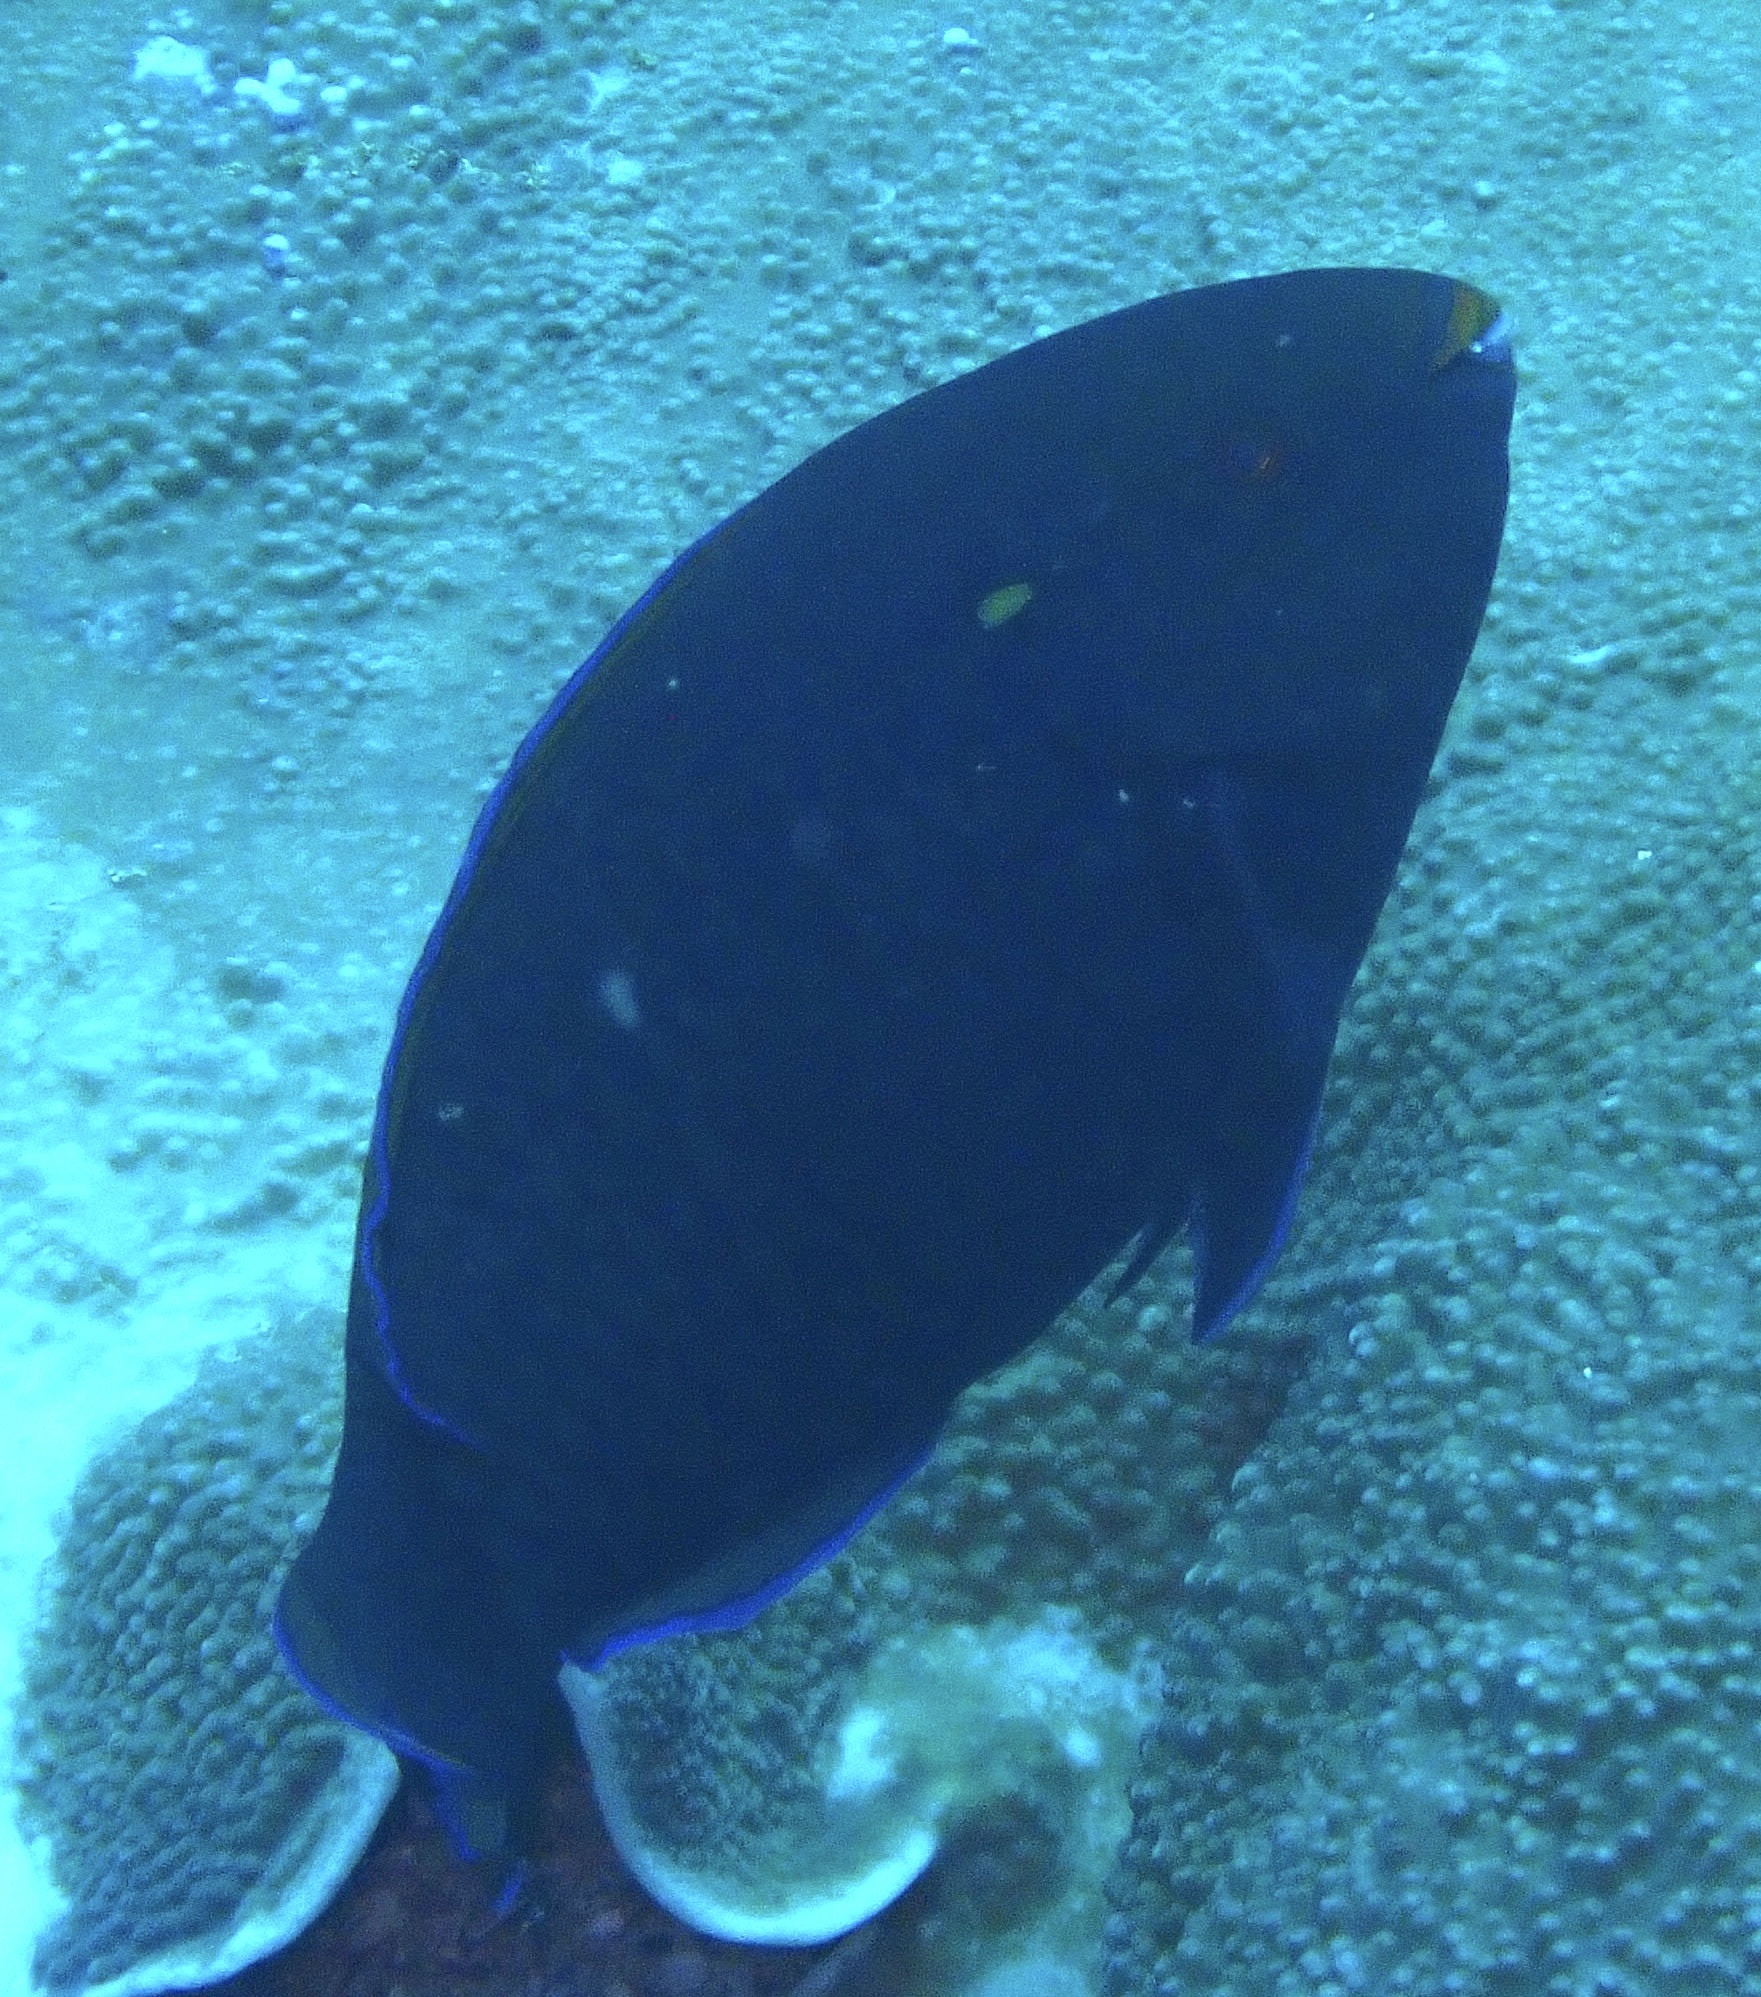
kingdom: Animalia
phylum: Chordata
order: Perciformes
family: Scaridae
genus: Scarus
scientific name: Scarus niger
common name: Dusky parrotfish
